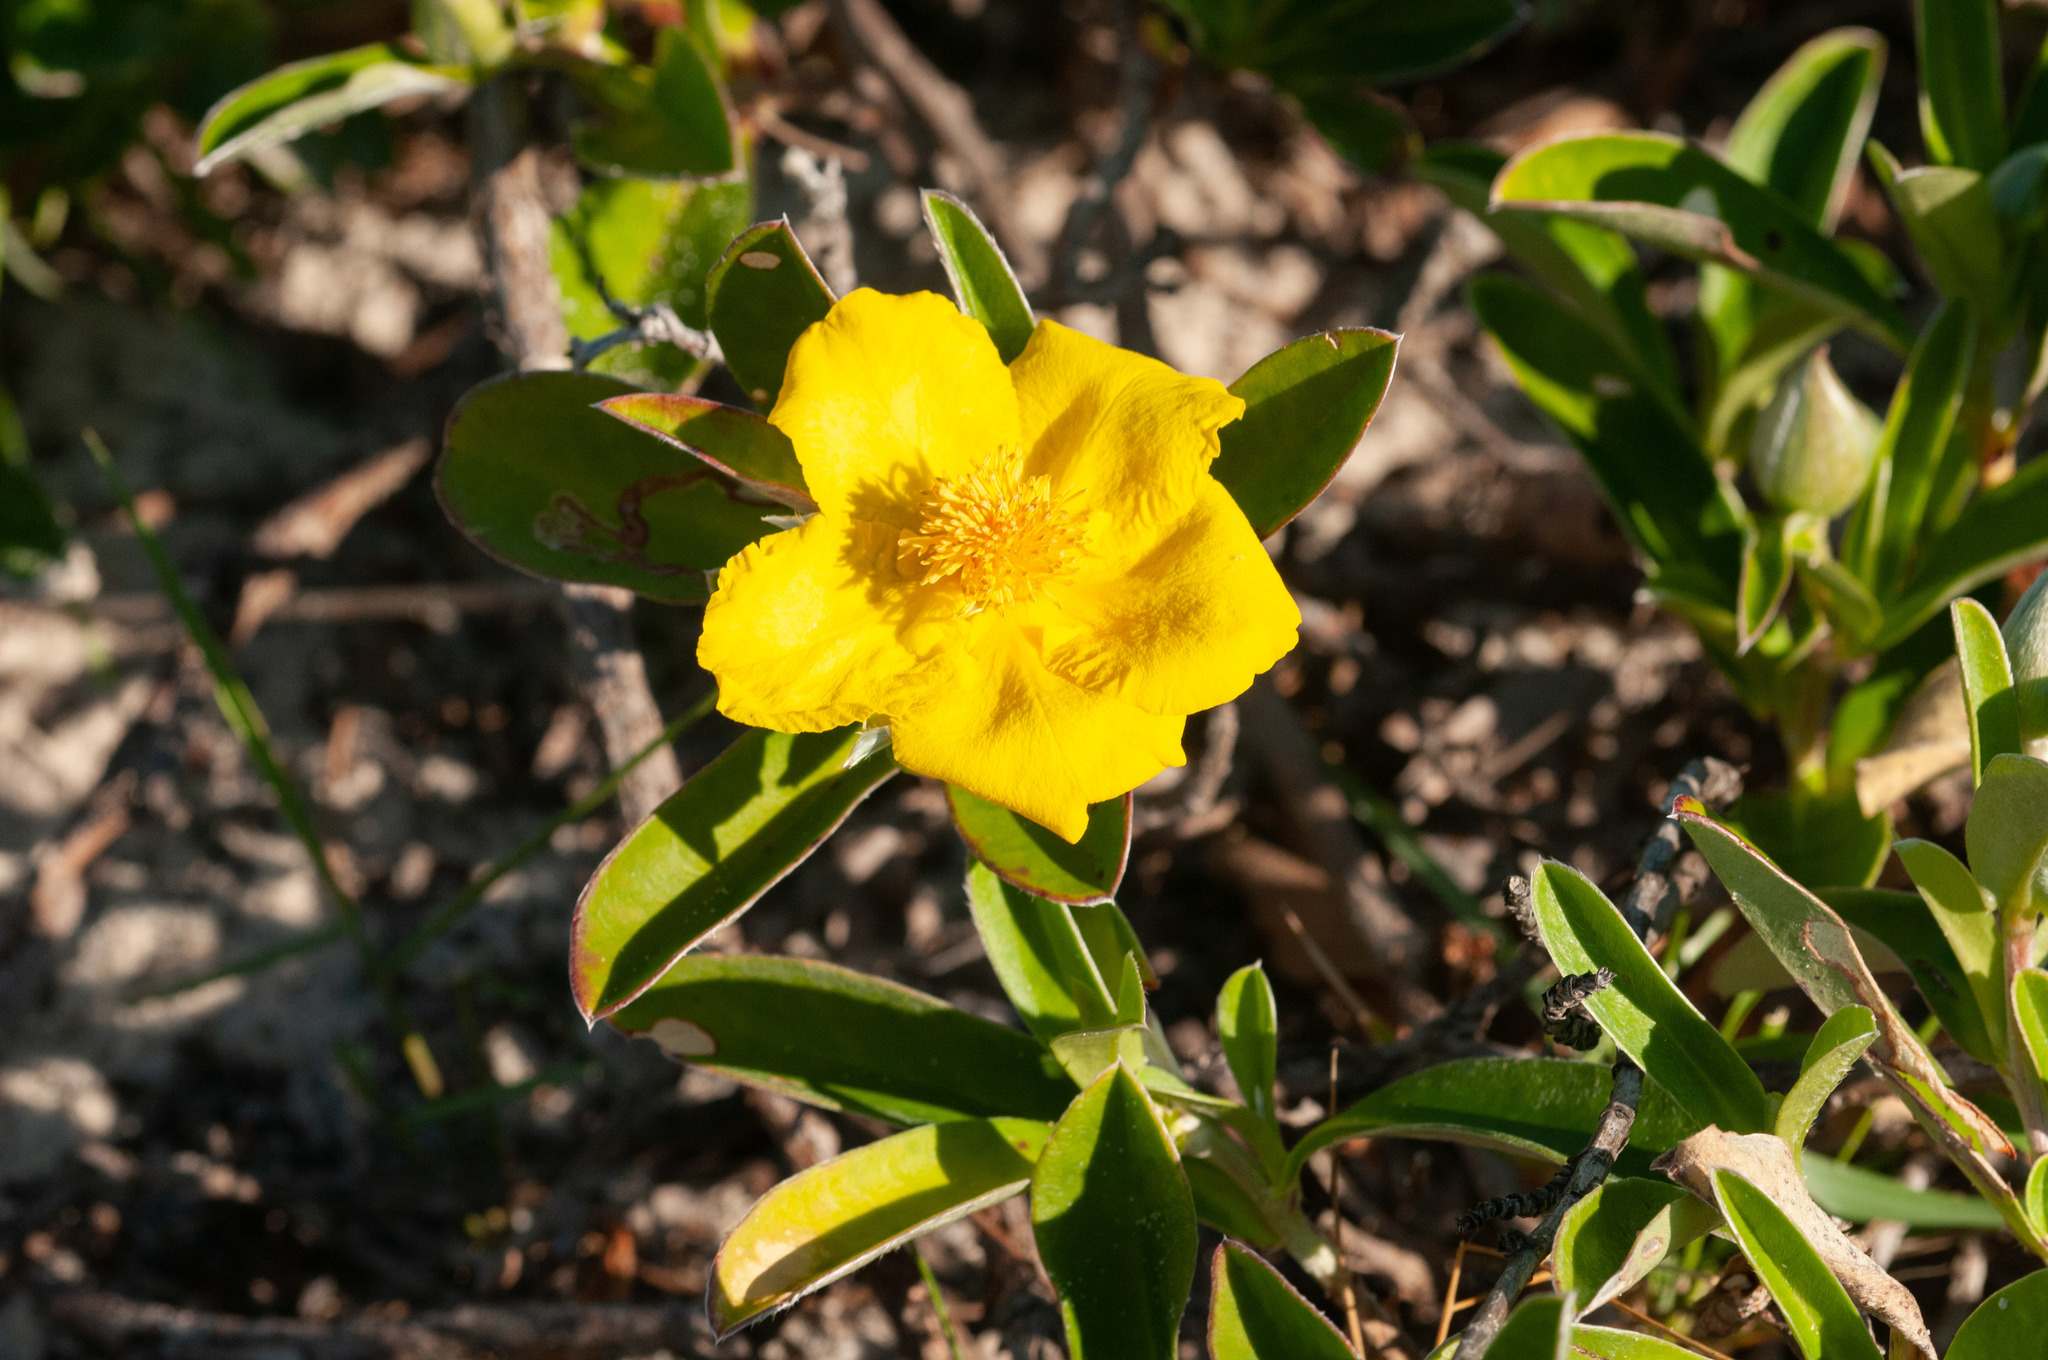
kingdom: Plantae
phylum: Tracheophyta
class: Magnoliopsida
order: Dilleniales
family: Dilleniaceae
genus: Hibbertia
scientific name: Hibbertia scandens
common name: Climbing guinea-flower
